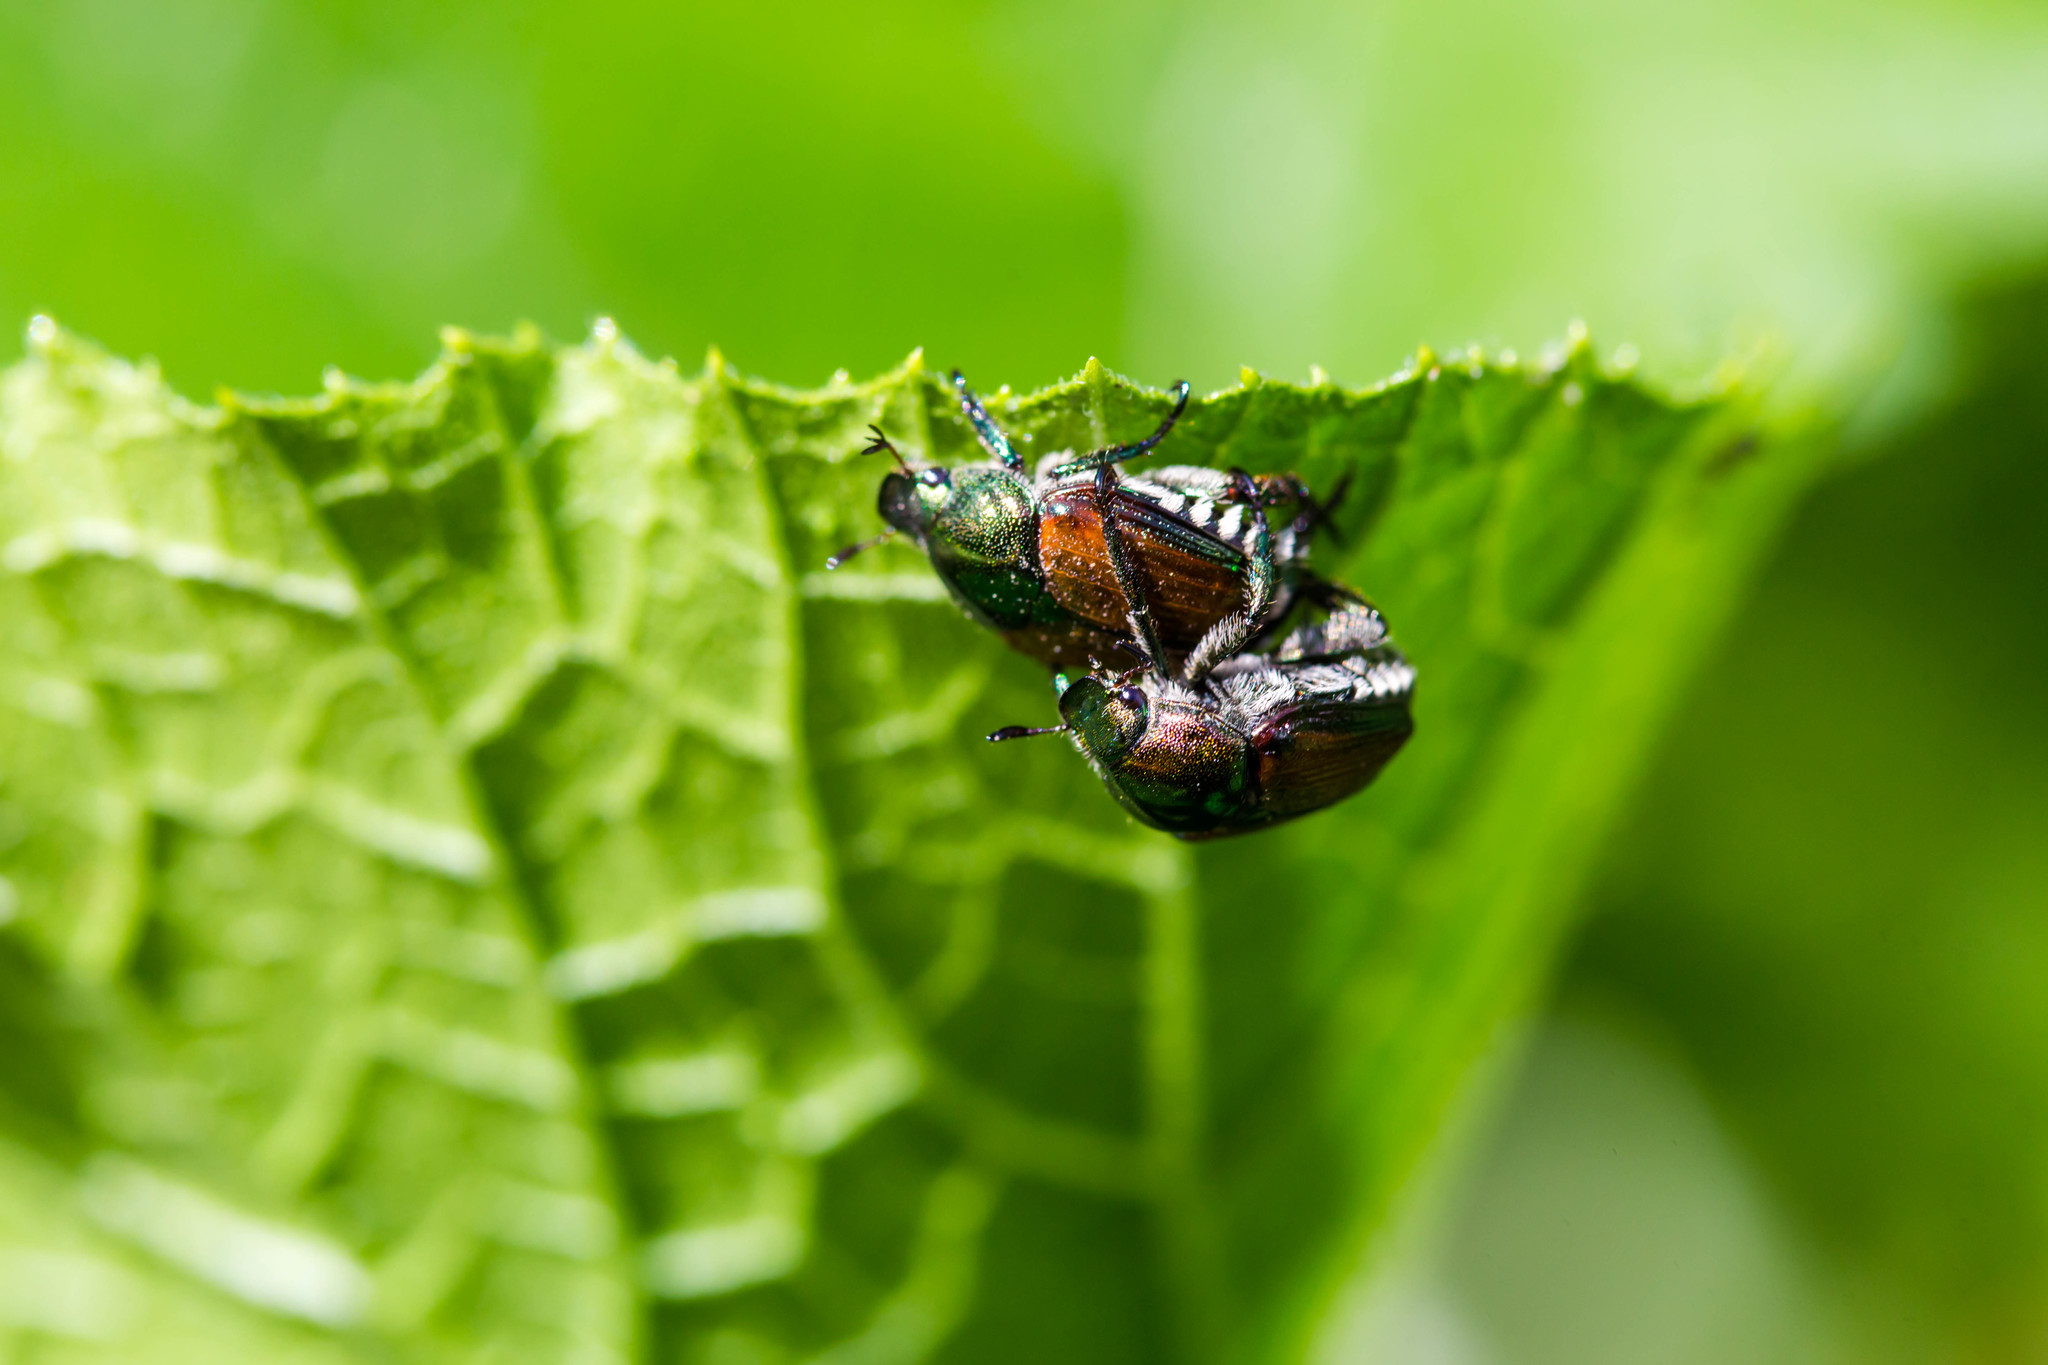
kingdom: Animalia
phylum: Arthropoda
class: Insecta
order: Coleoptera
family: Scarabaeidae
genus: Popillia
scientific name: Popillia japonica
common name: Japanese beetle
